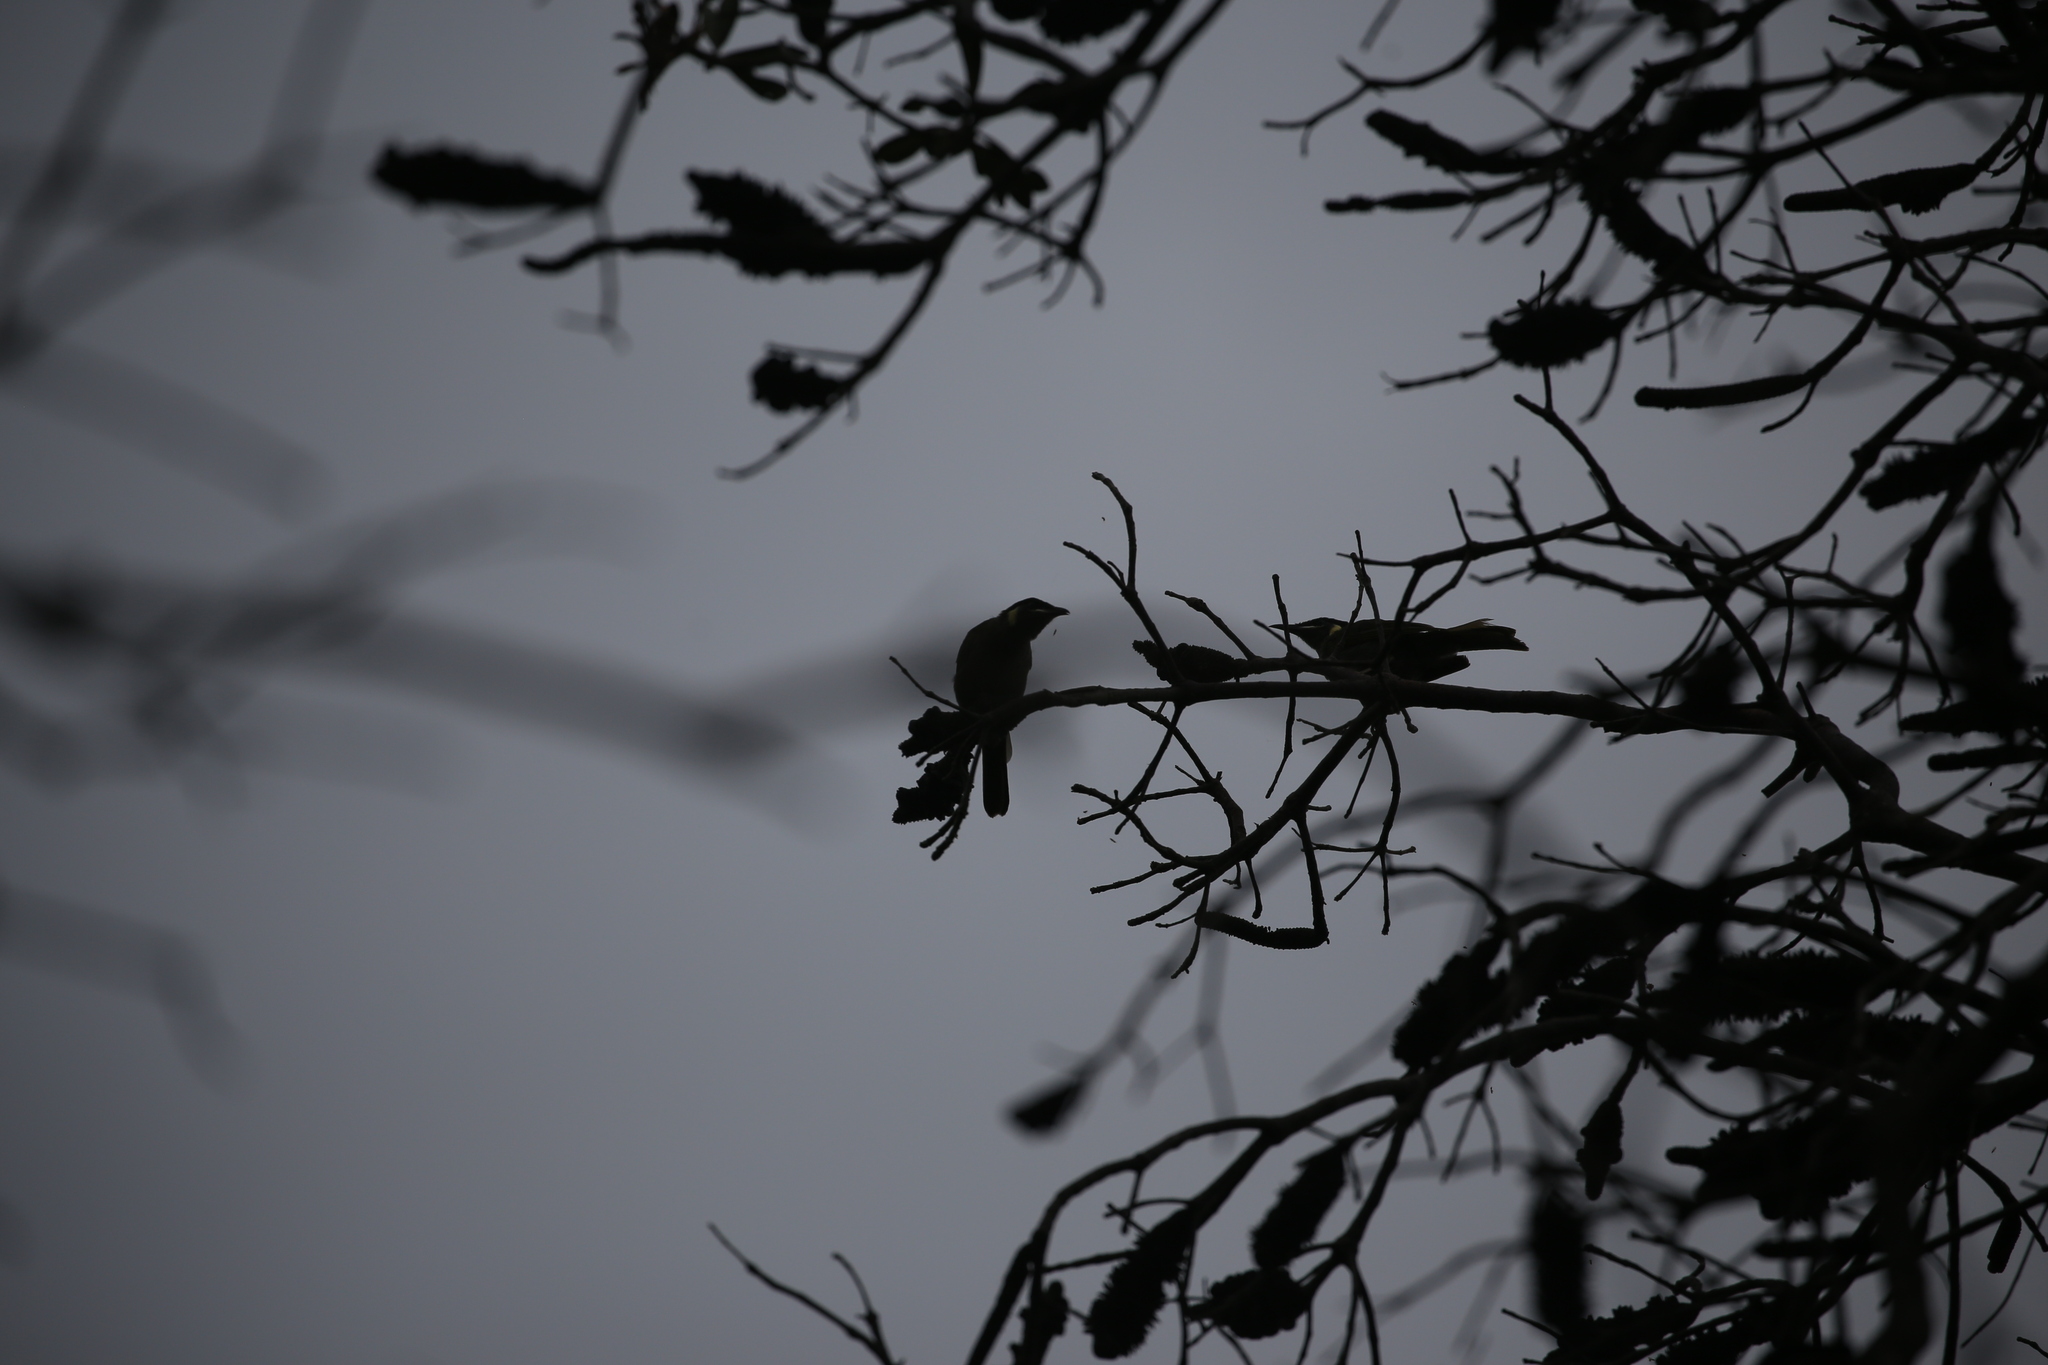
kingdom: Animalia
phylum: Chordata
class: Aves
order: Passeriformes
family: Meliphagidae
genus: Meliphaga
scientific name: Meliphaga lewinii
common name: Lewin's honeyeater
